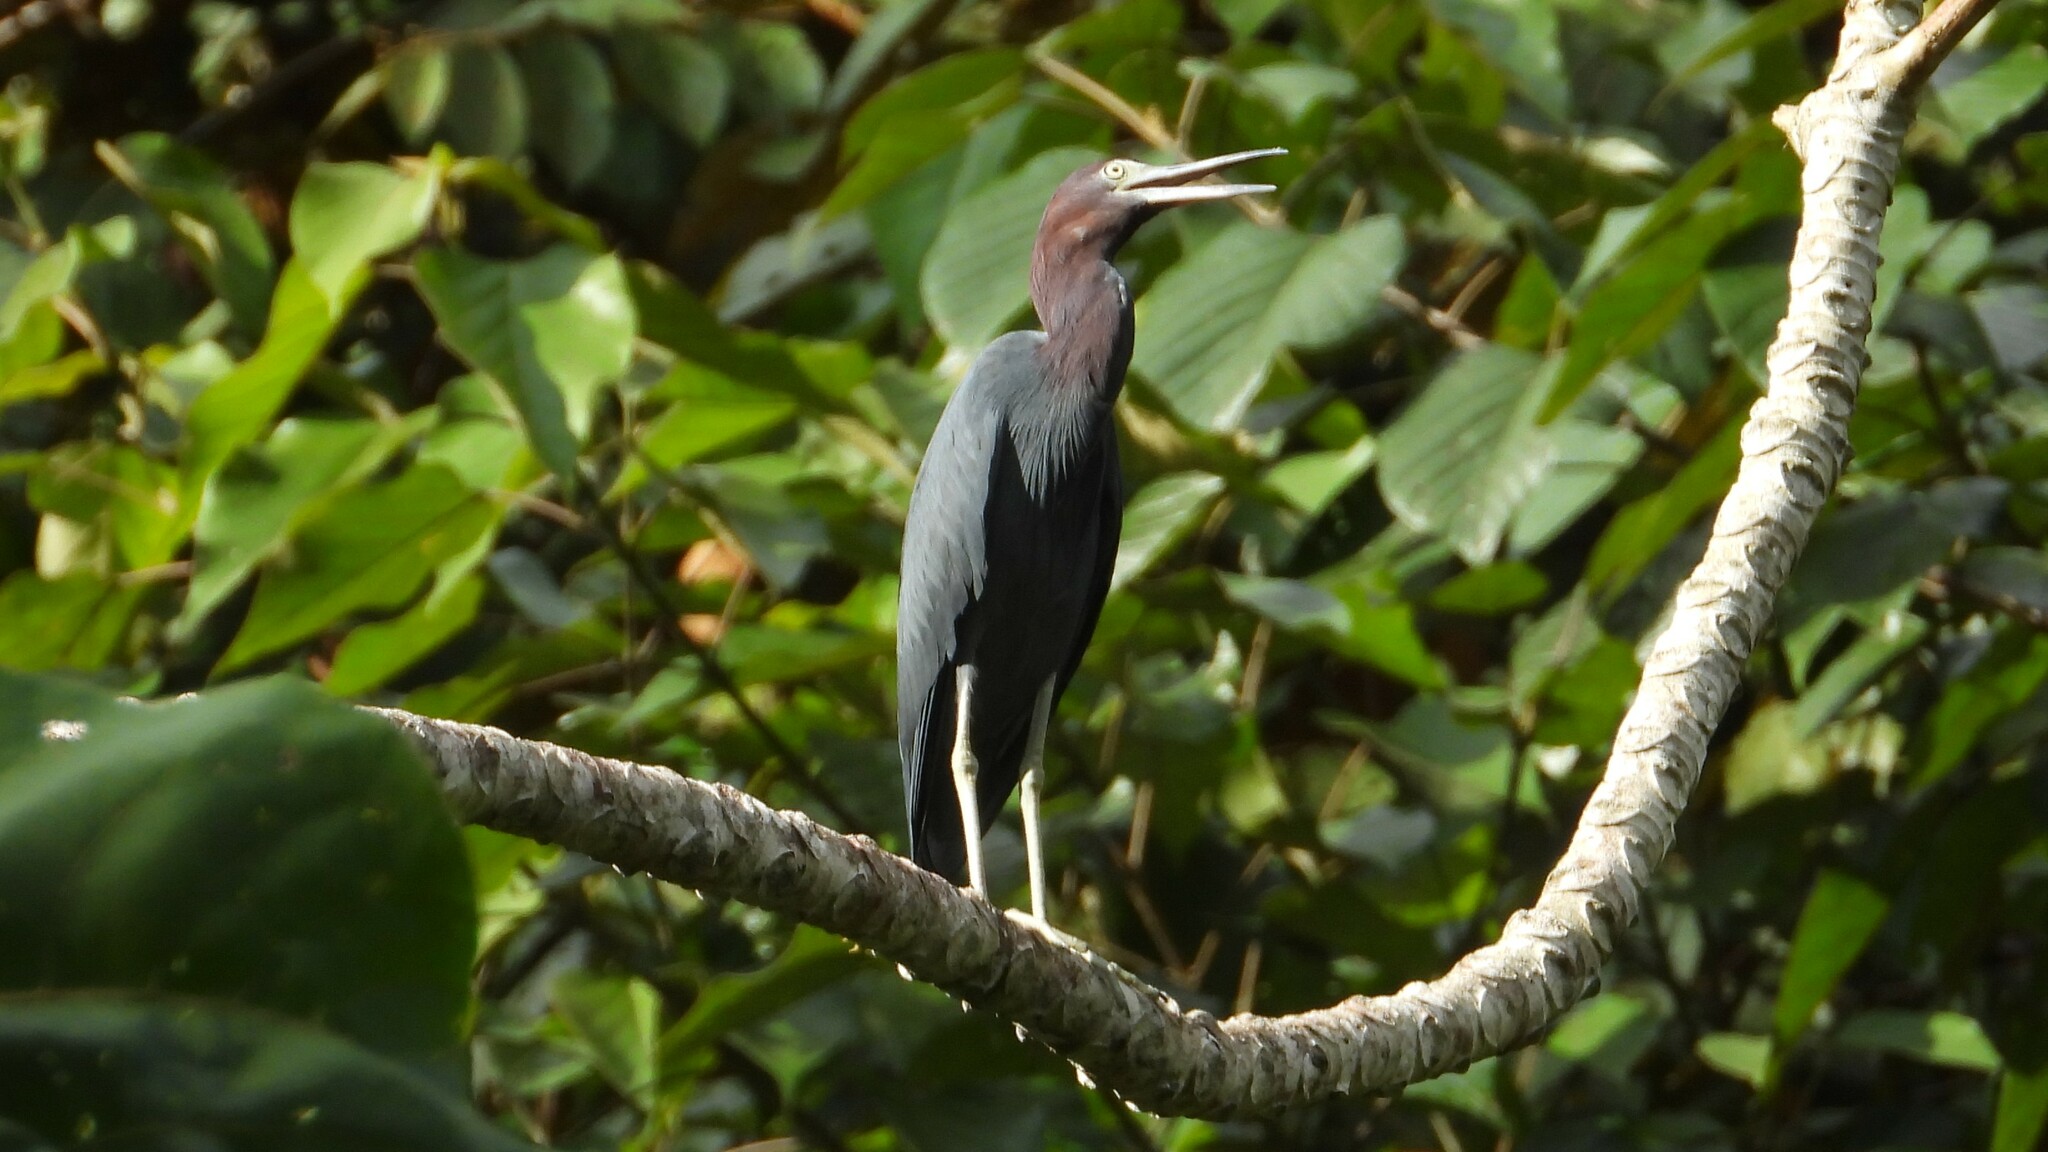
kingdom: Animalia
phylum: Chordata
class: Aves
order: Pelecaniformes
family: Ardeidae
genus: Egretta
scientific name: Egretta caerulea
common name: Little blue heron
